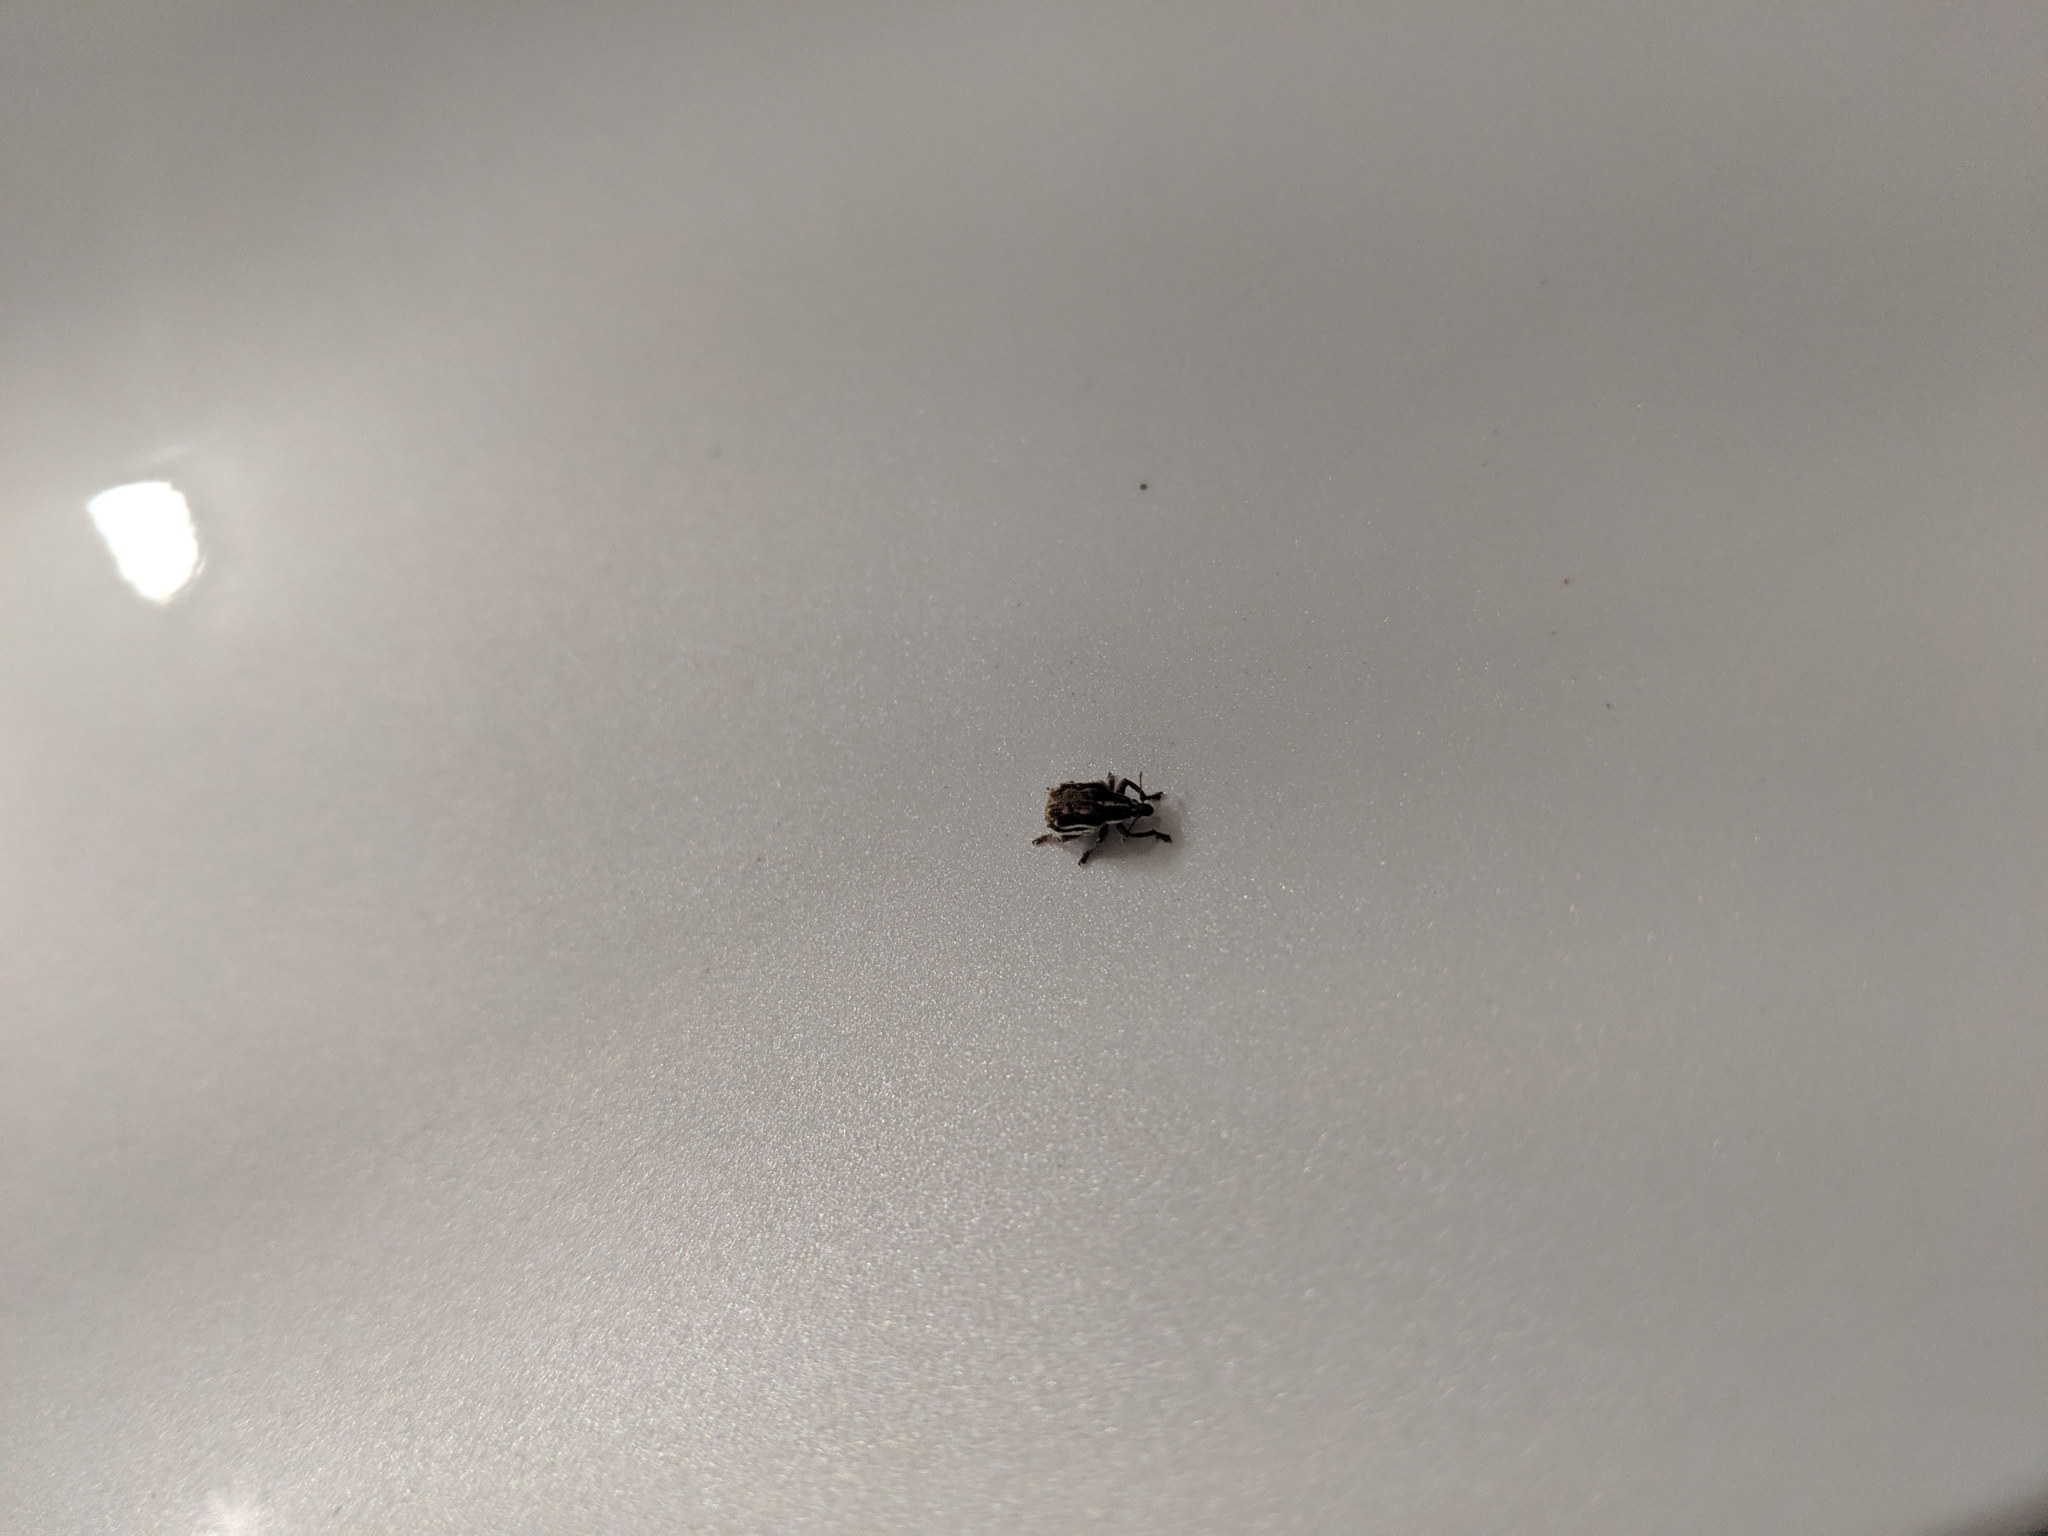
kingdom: Animalia
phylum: Arthropoda
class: Insecta
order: Coleoptera
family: Curculionidae
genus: Iptergonus
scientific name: Iptergonus bifurcatus
